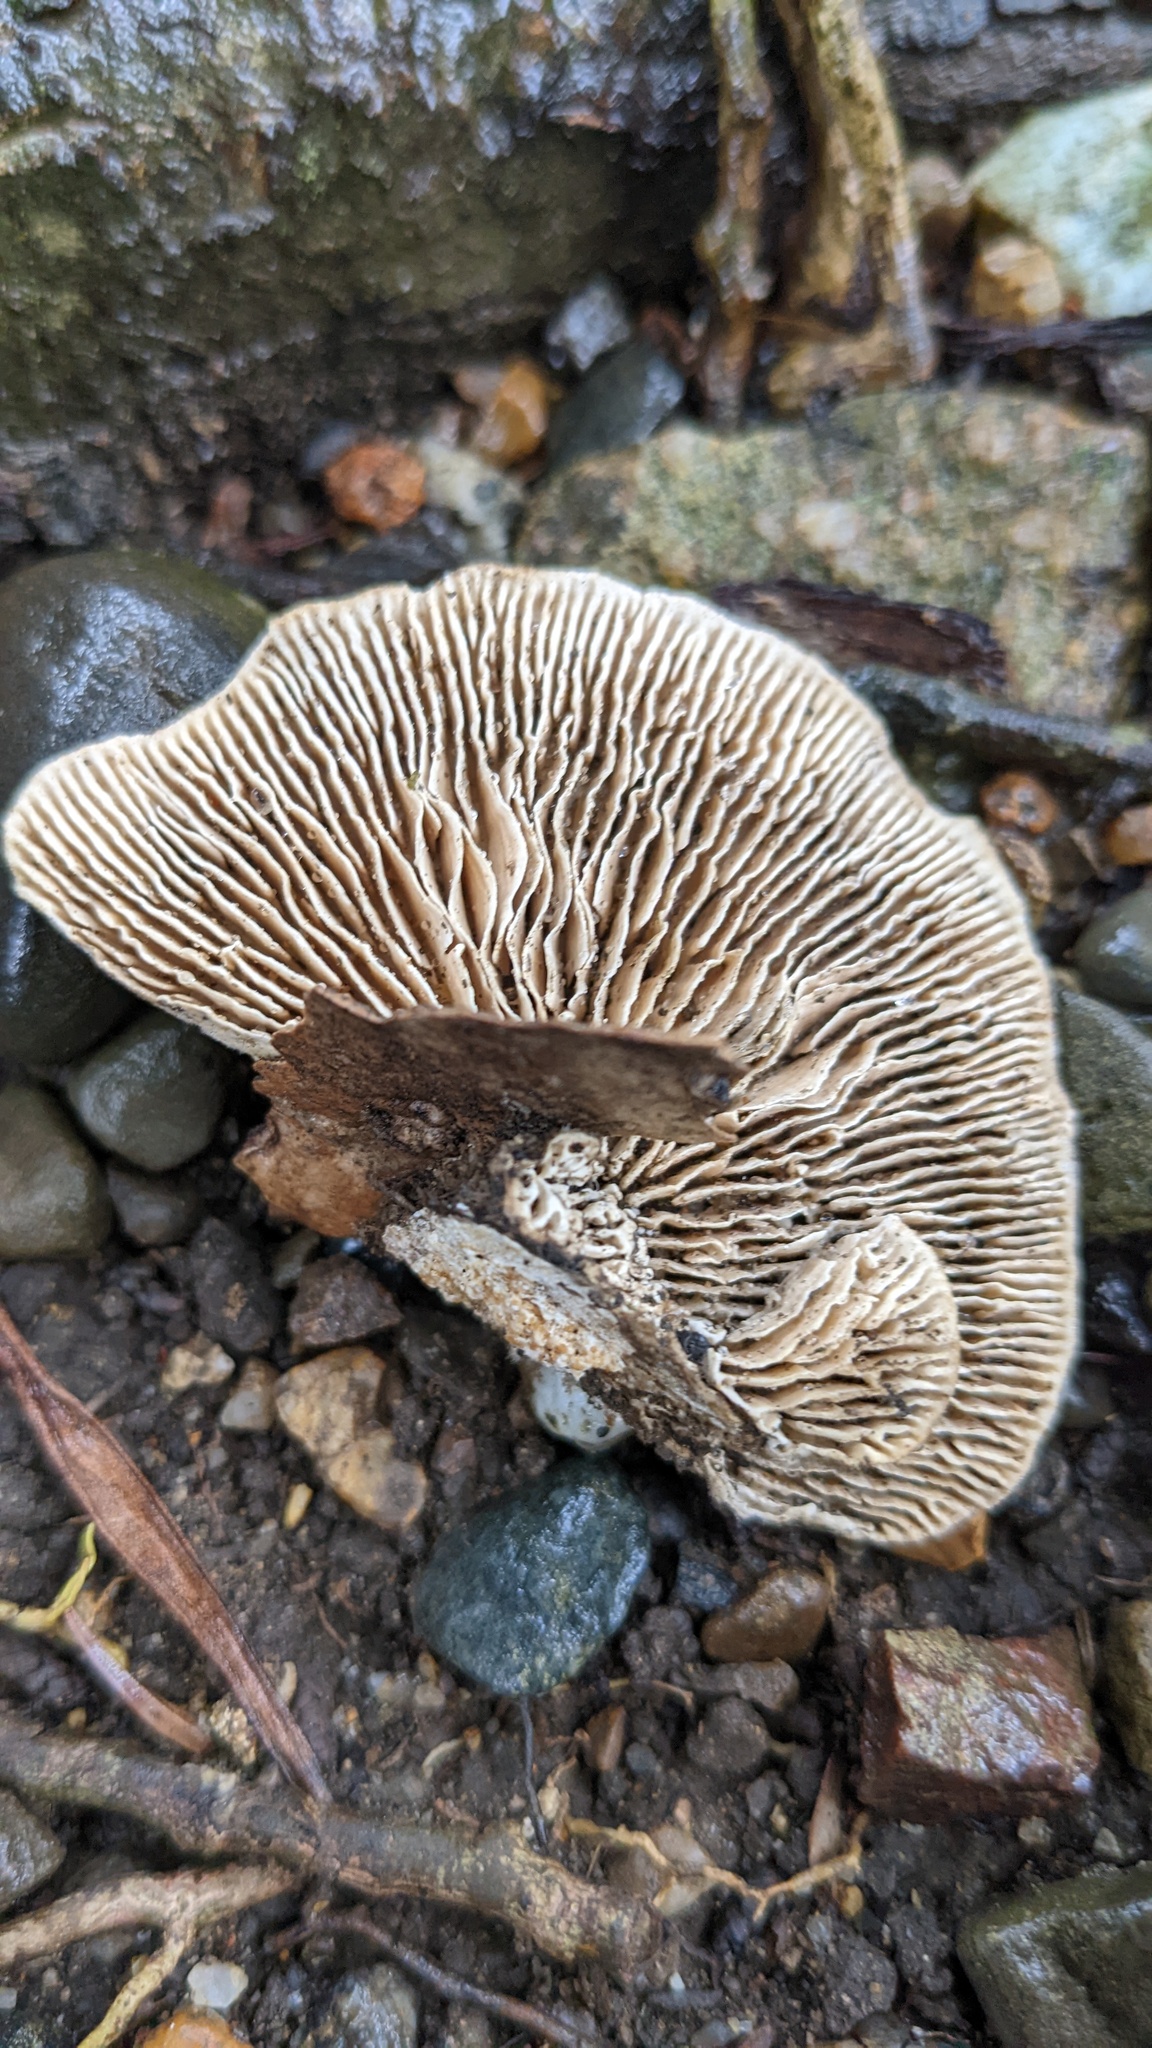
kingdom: Fungi
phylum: Basidiomycota
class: Agaricomycetes
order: Polyporales
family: Polyporaceae
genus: Lenzites
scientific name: Lenzites betulinus
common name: Birch mazegill
